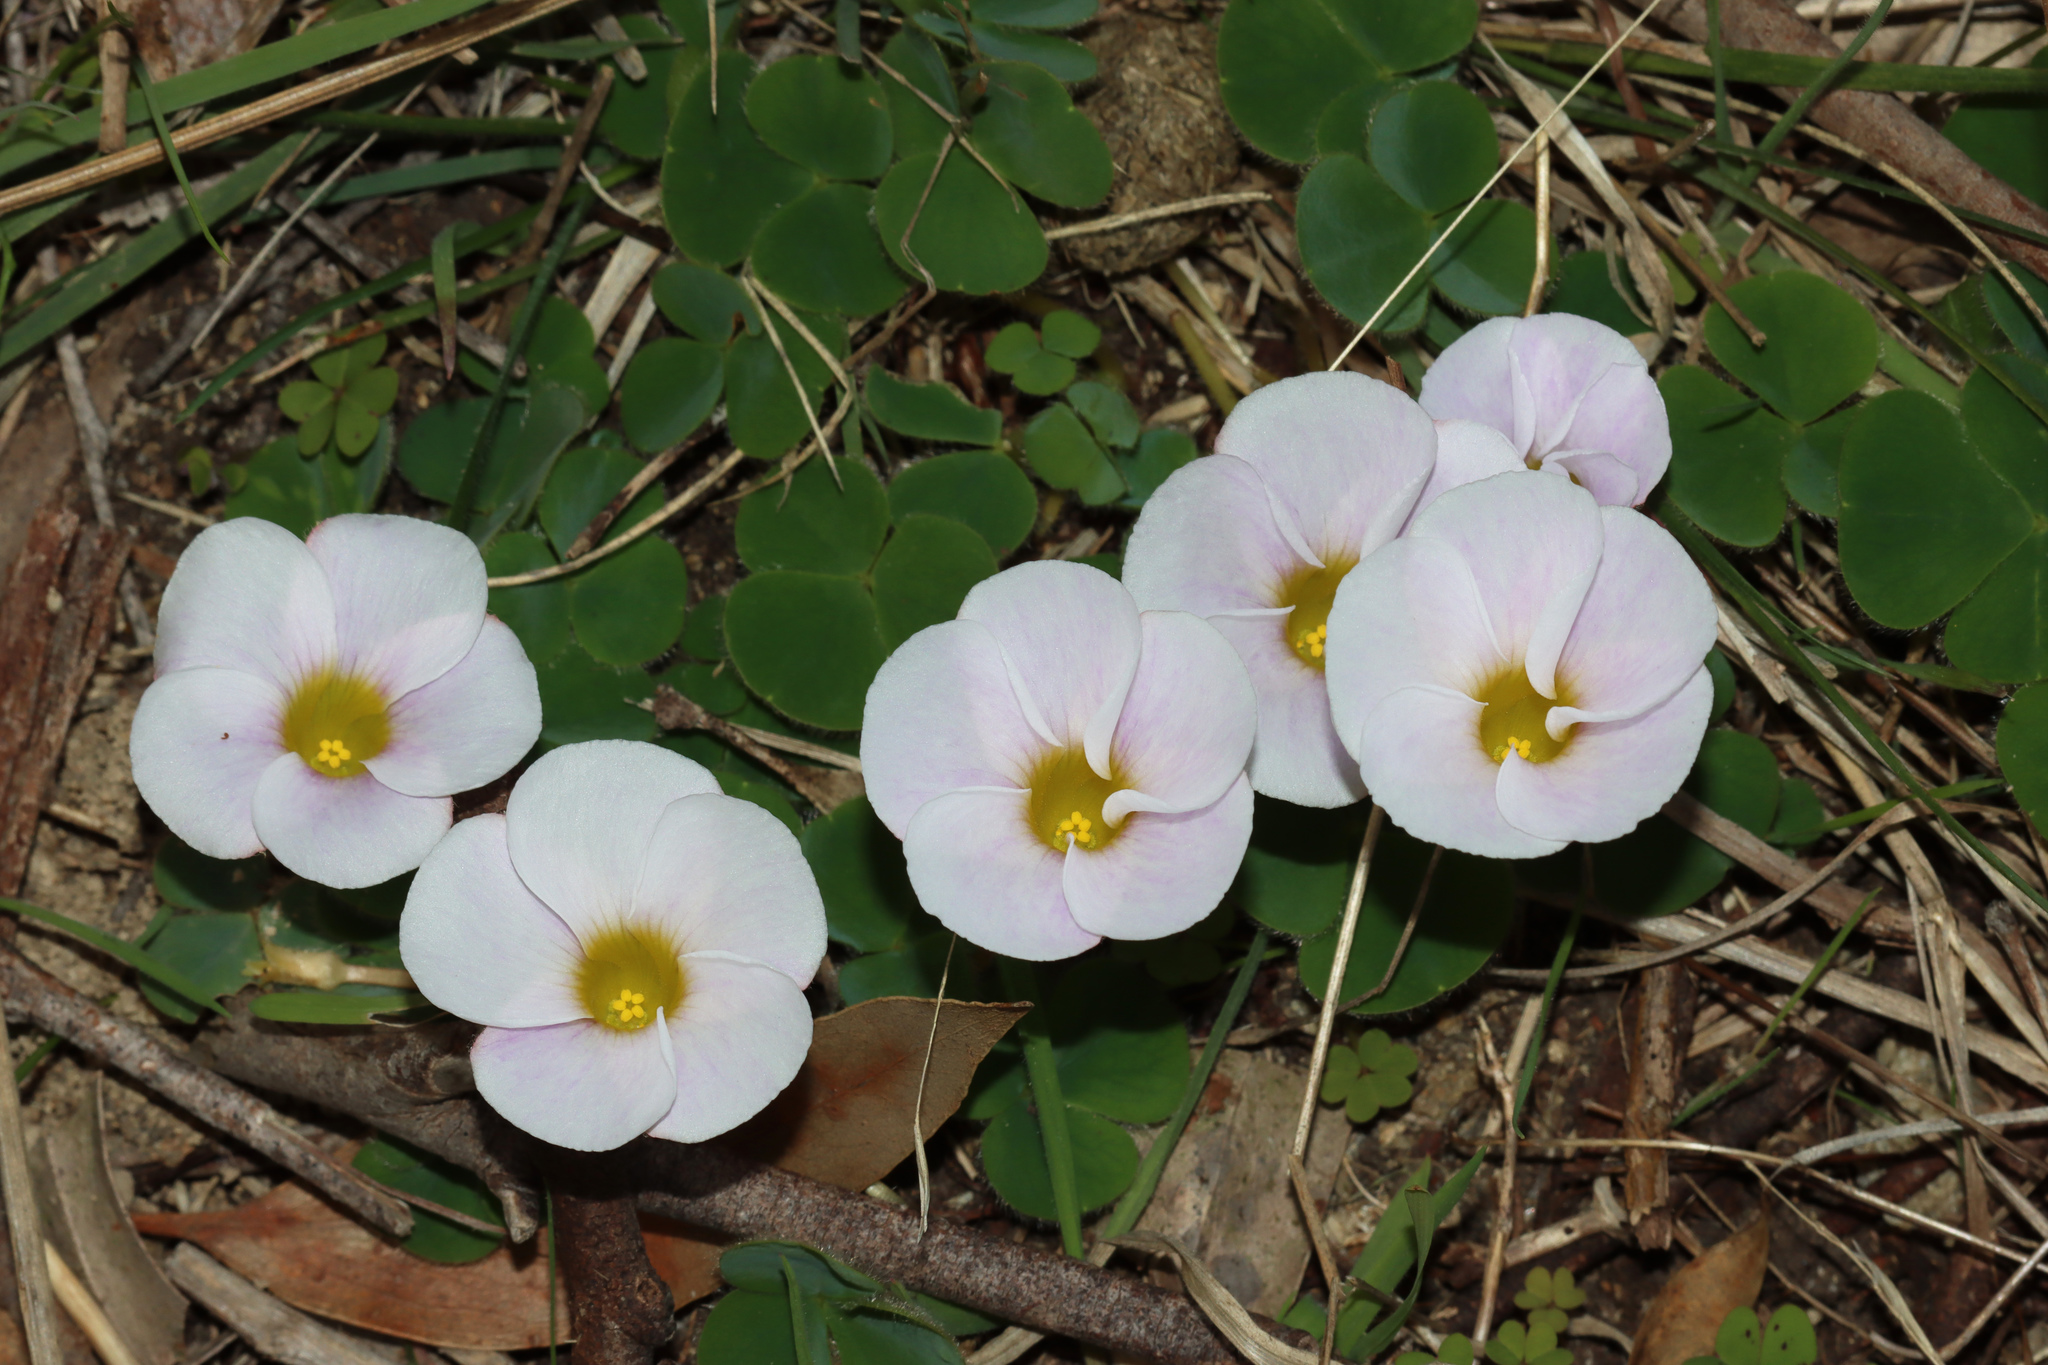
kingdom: Plantae
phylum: Tracheophyta
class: Magnoliopsida
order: Oxalidales
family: Oxalidaceae
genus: Oxalis
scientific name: Oxalis purpurea
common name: Purple woodsorrel
